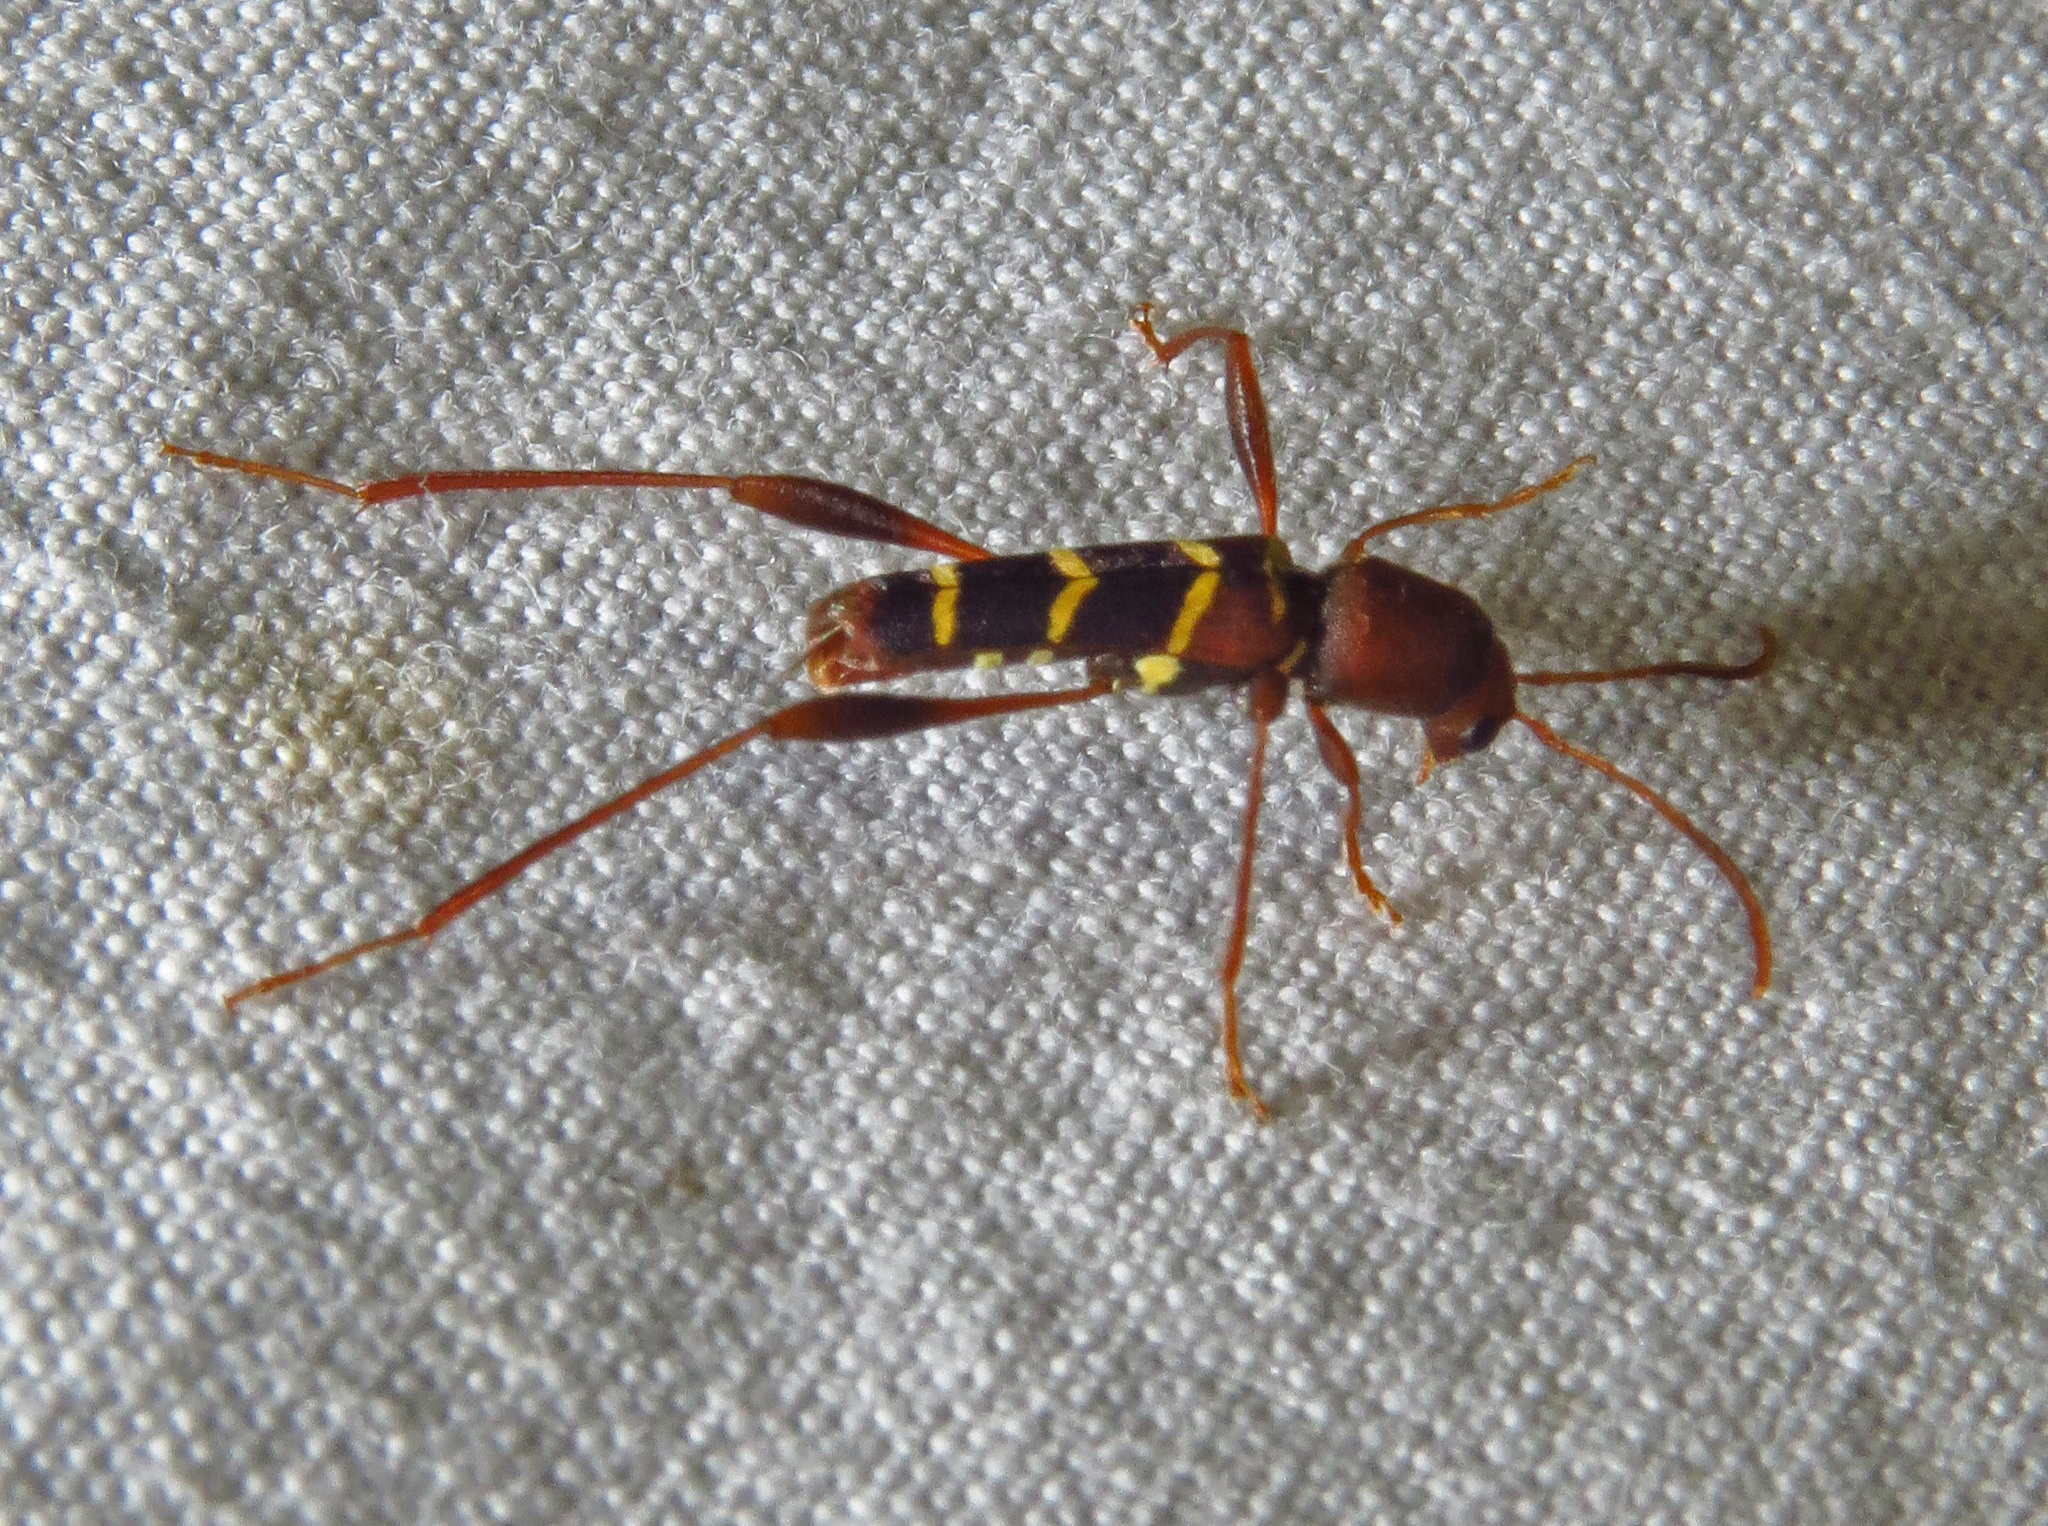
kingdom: Animalia
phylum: Arthropoda
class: Insecta
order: Coleoptera
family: Cerambycidae
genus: Neoclytus
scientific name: Neoclytus acuminatus
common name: Read-headed ash borer
